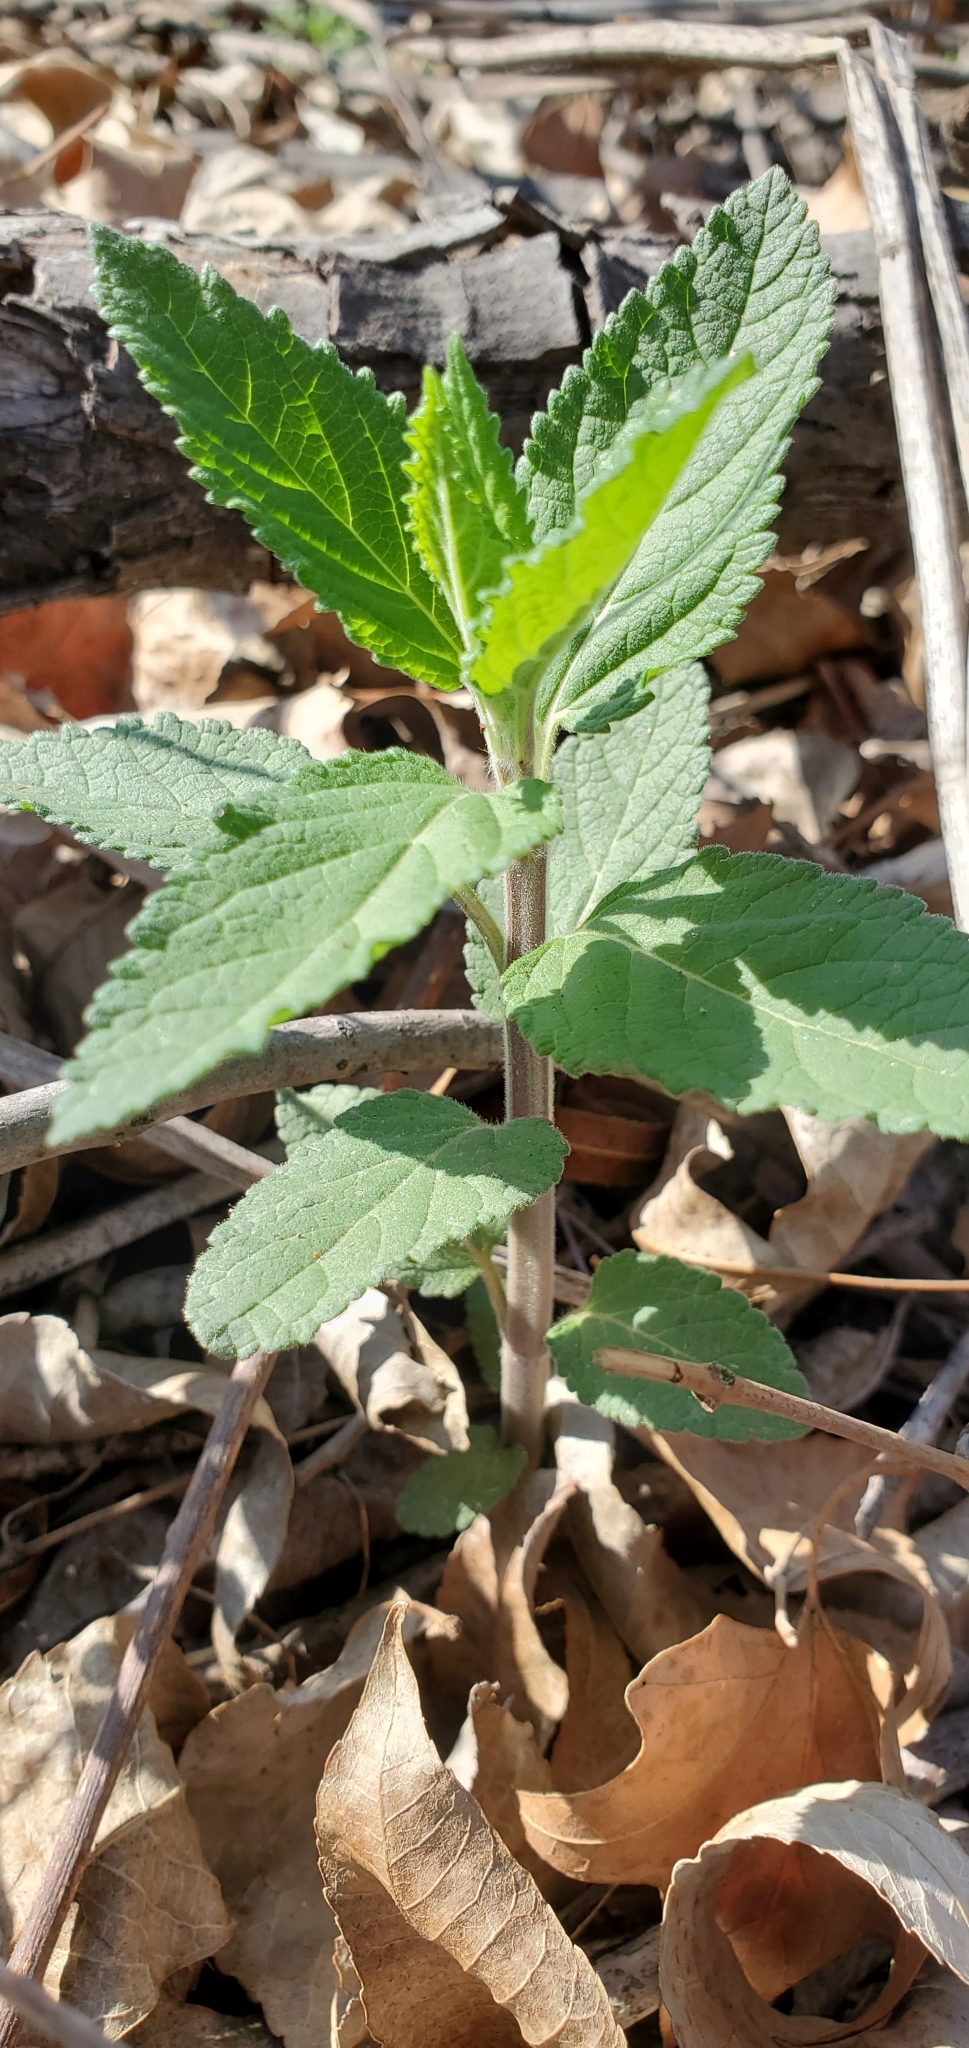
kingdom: Plantae
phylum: Tracheophyta
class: Magnoliopsida
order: Lamiales
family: Lamiaceae
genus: Teucrium
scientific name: Teucrium canadense
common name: American germander
